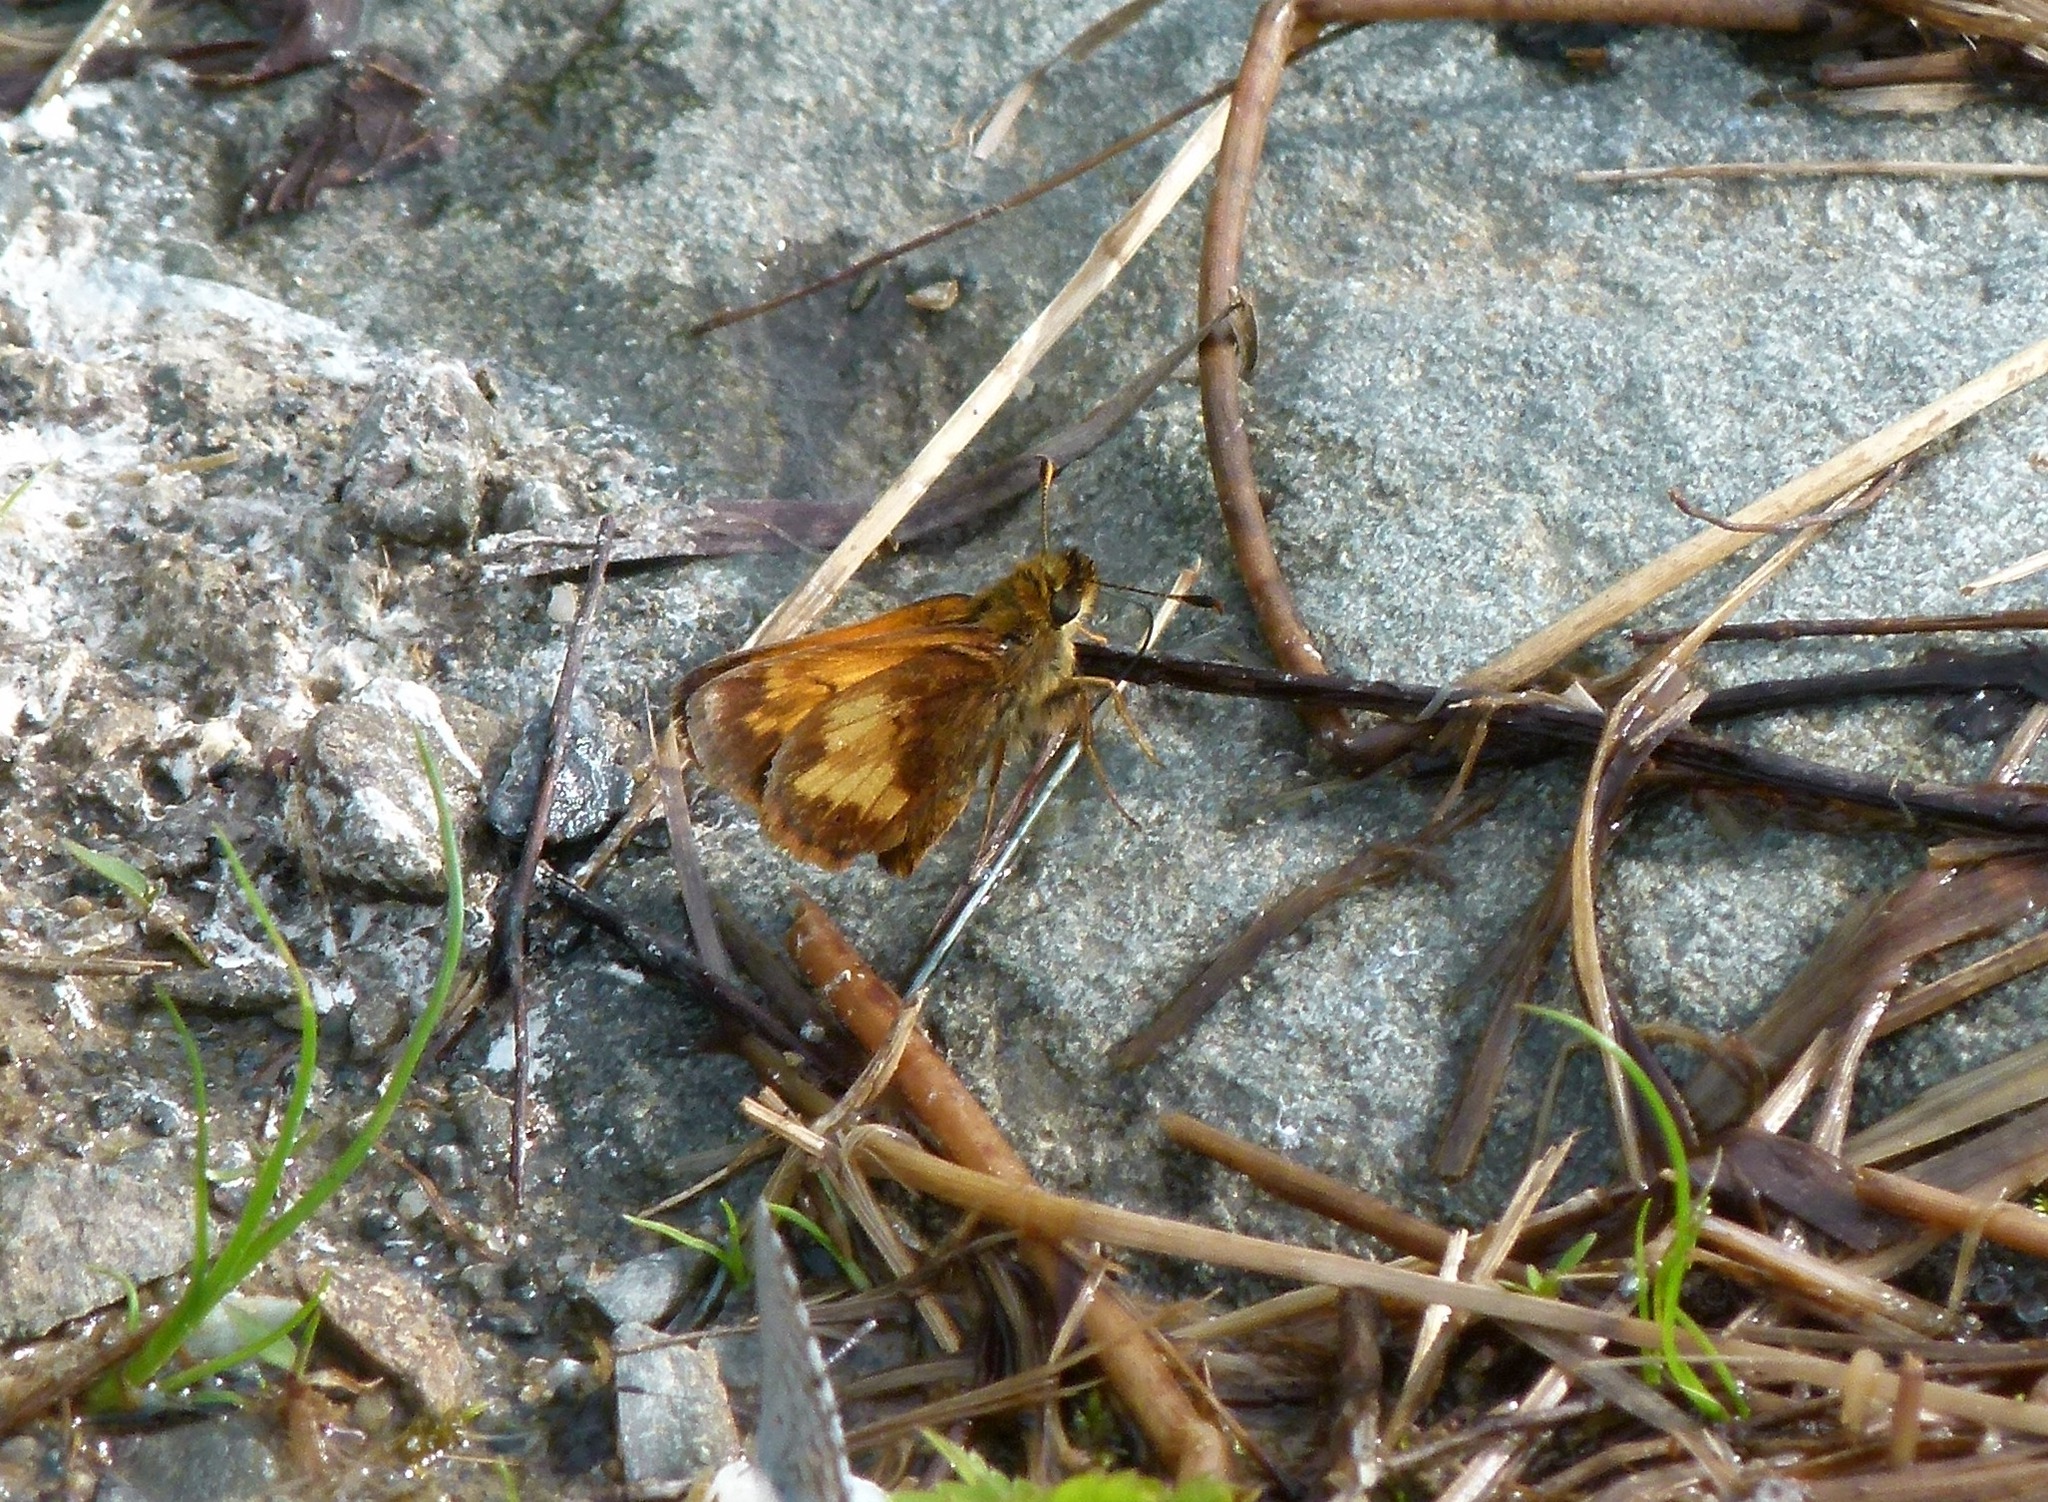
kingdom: Animalia
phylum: Arthropoda
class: Insecta
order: Lepidoptera
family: Hesperiidae
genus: Lon
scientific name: Lon hobomok
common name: Hobomok skipper
